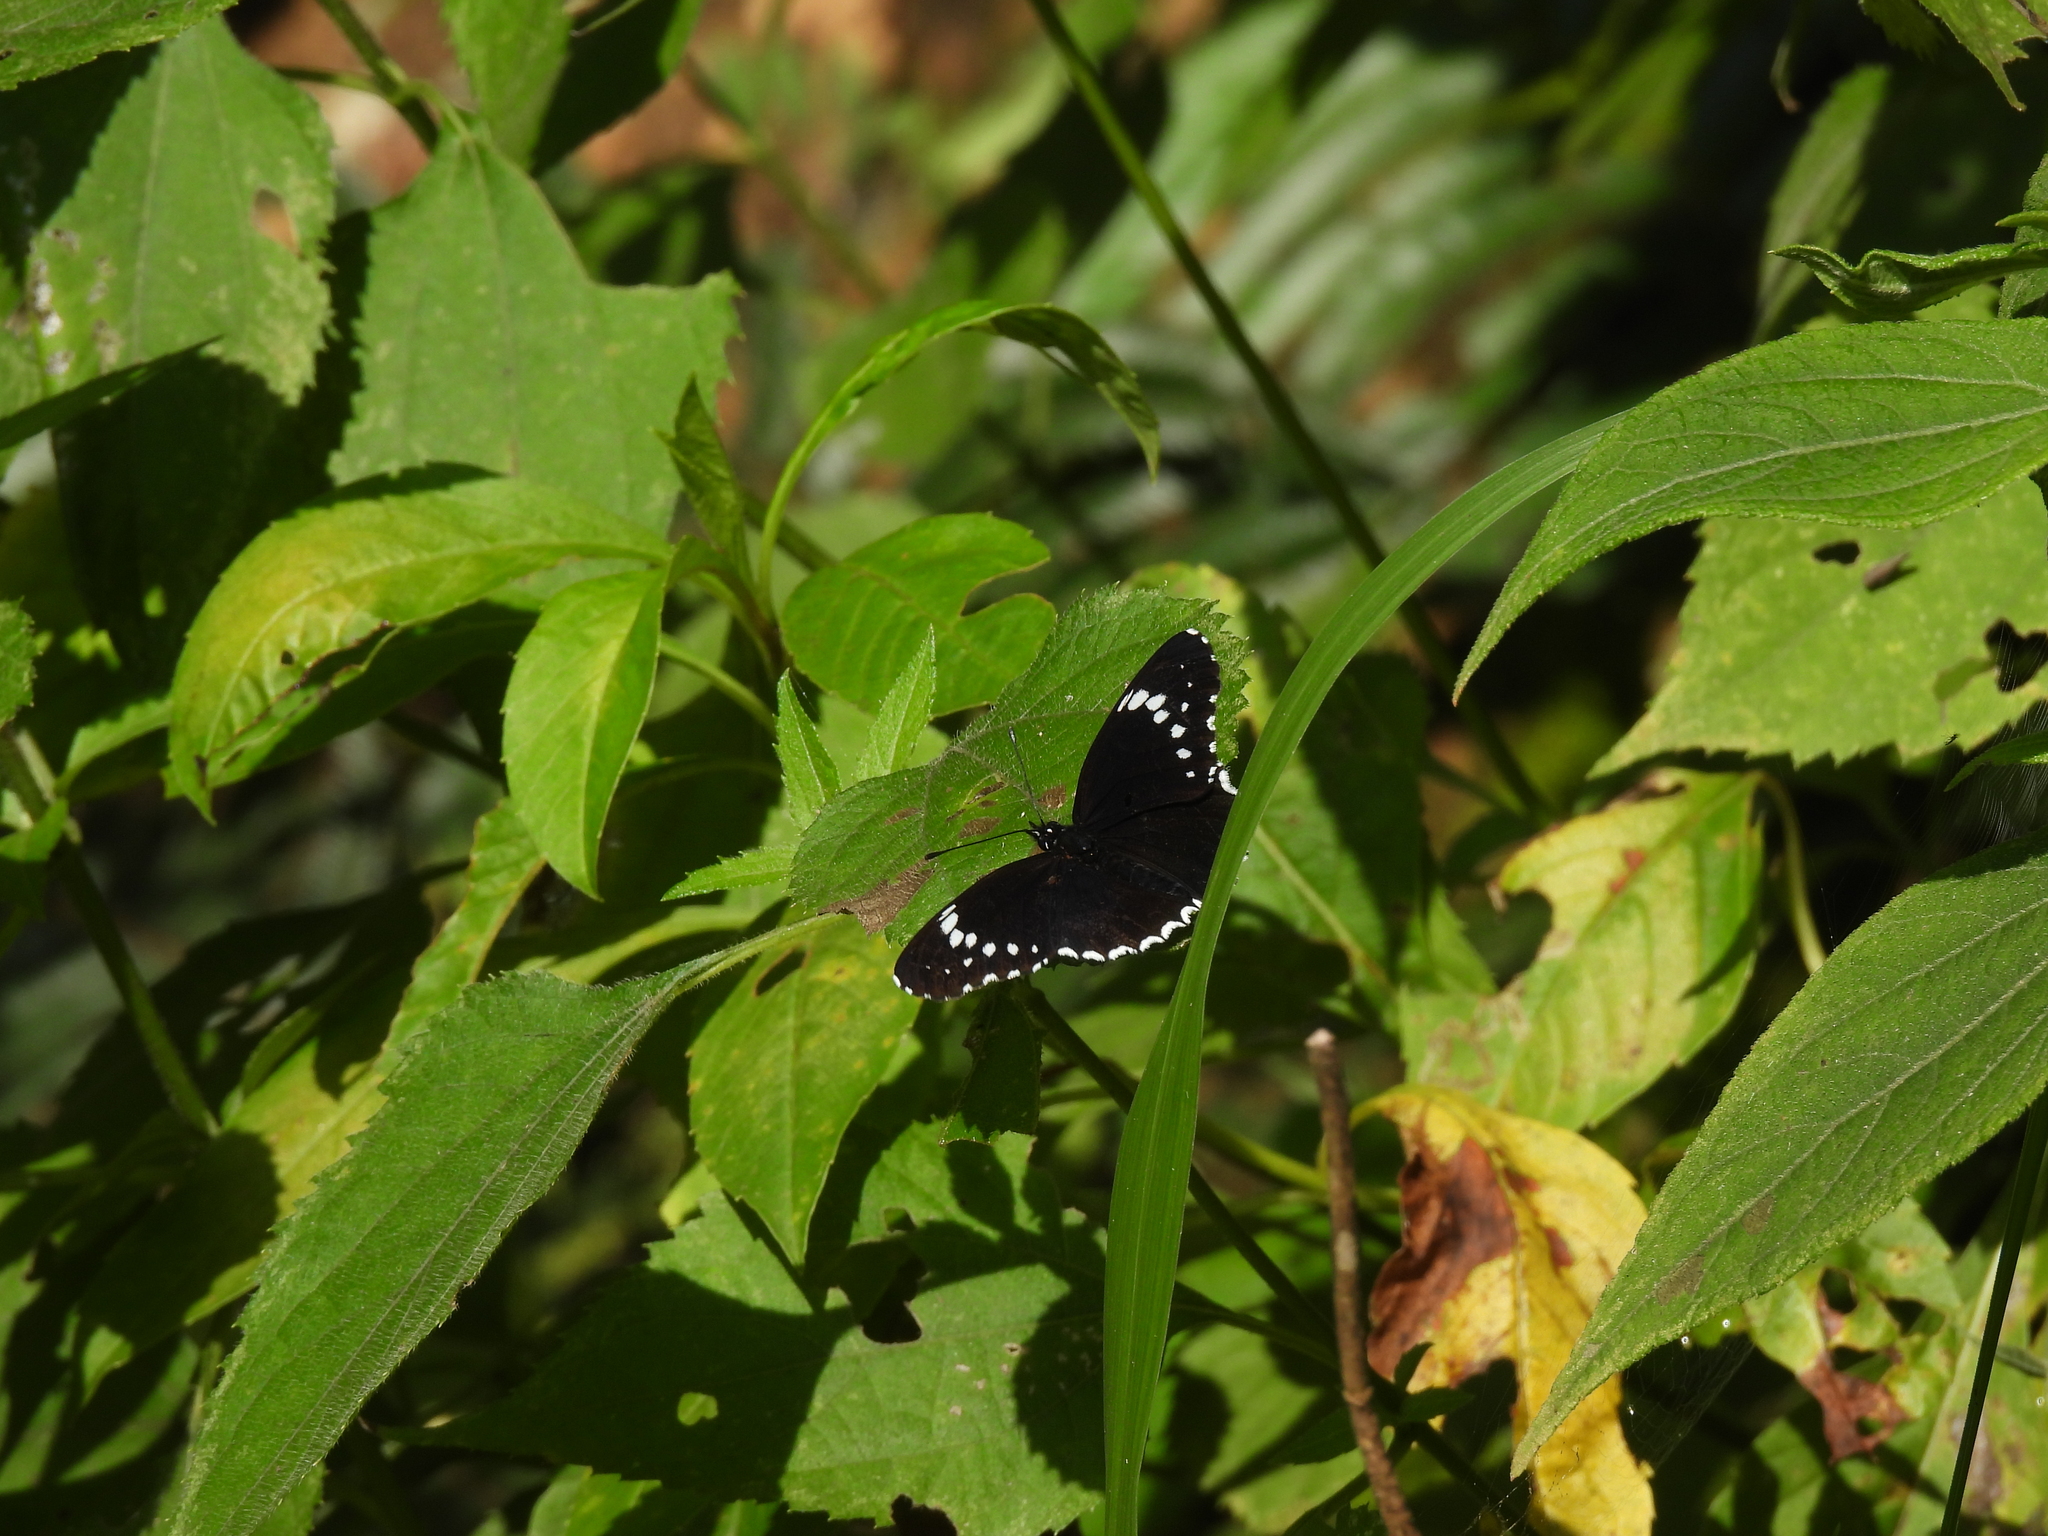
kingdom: Animalia
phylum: Arthropoda
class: Insecta
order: Lepidoptera
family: Nymphalidae
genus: Chlosyne
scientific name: Chlosyne hippodrome
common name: Simple patch
